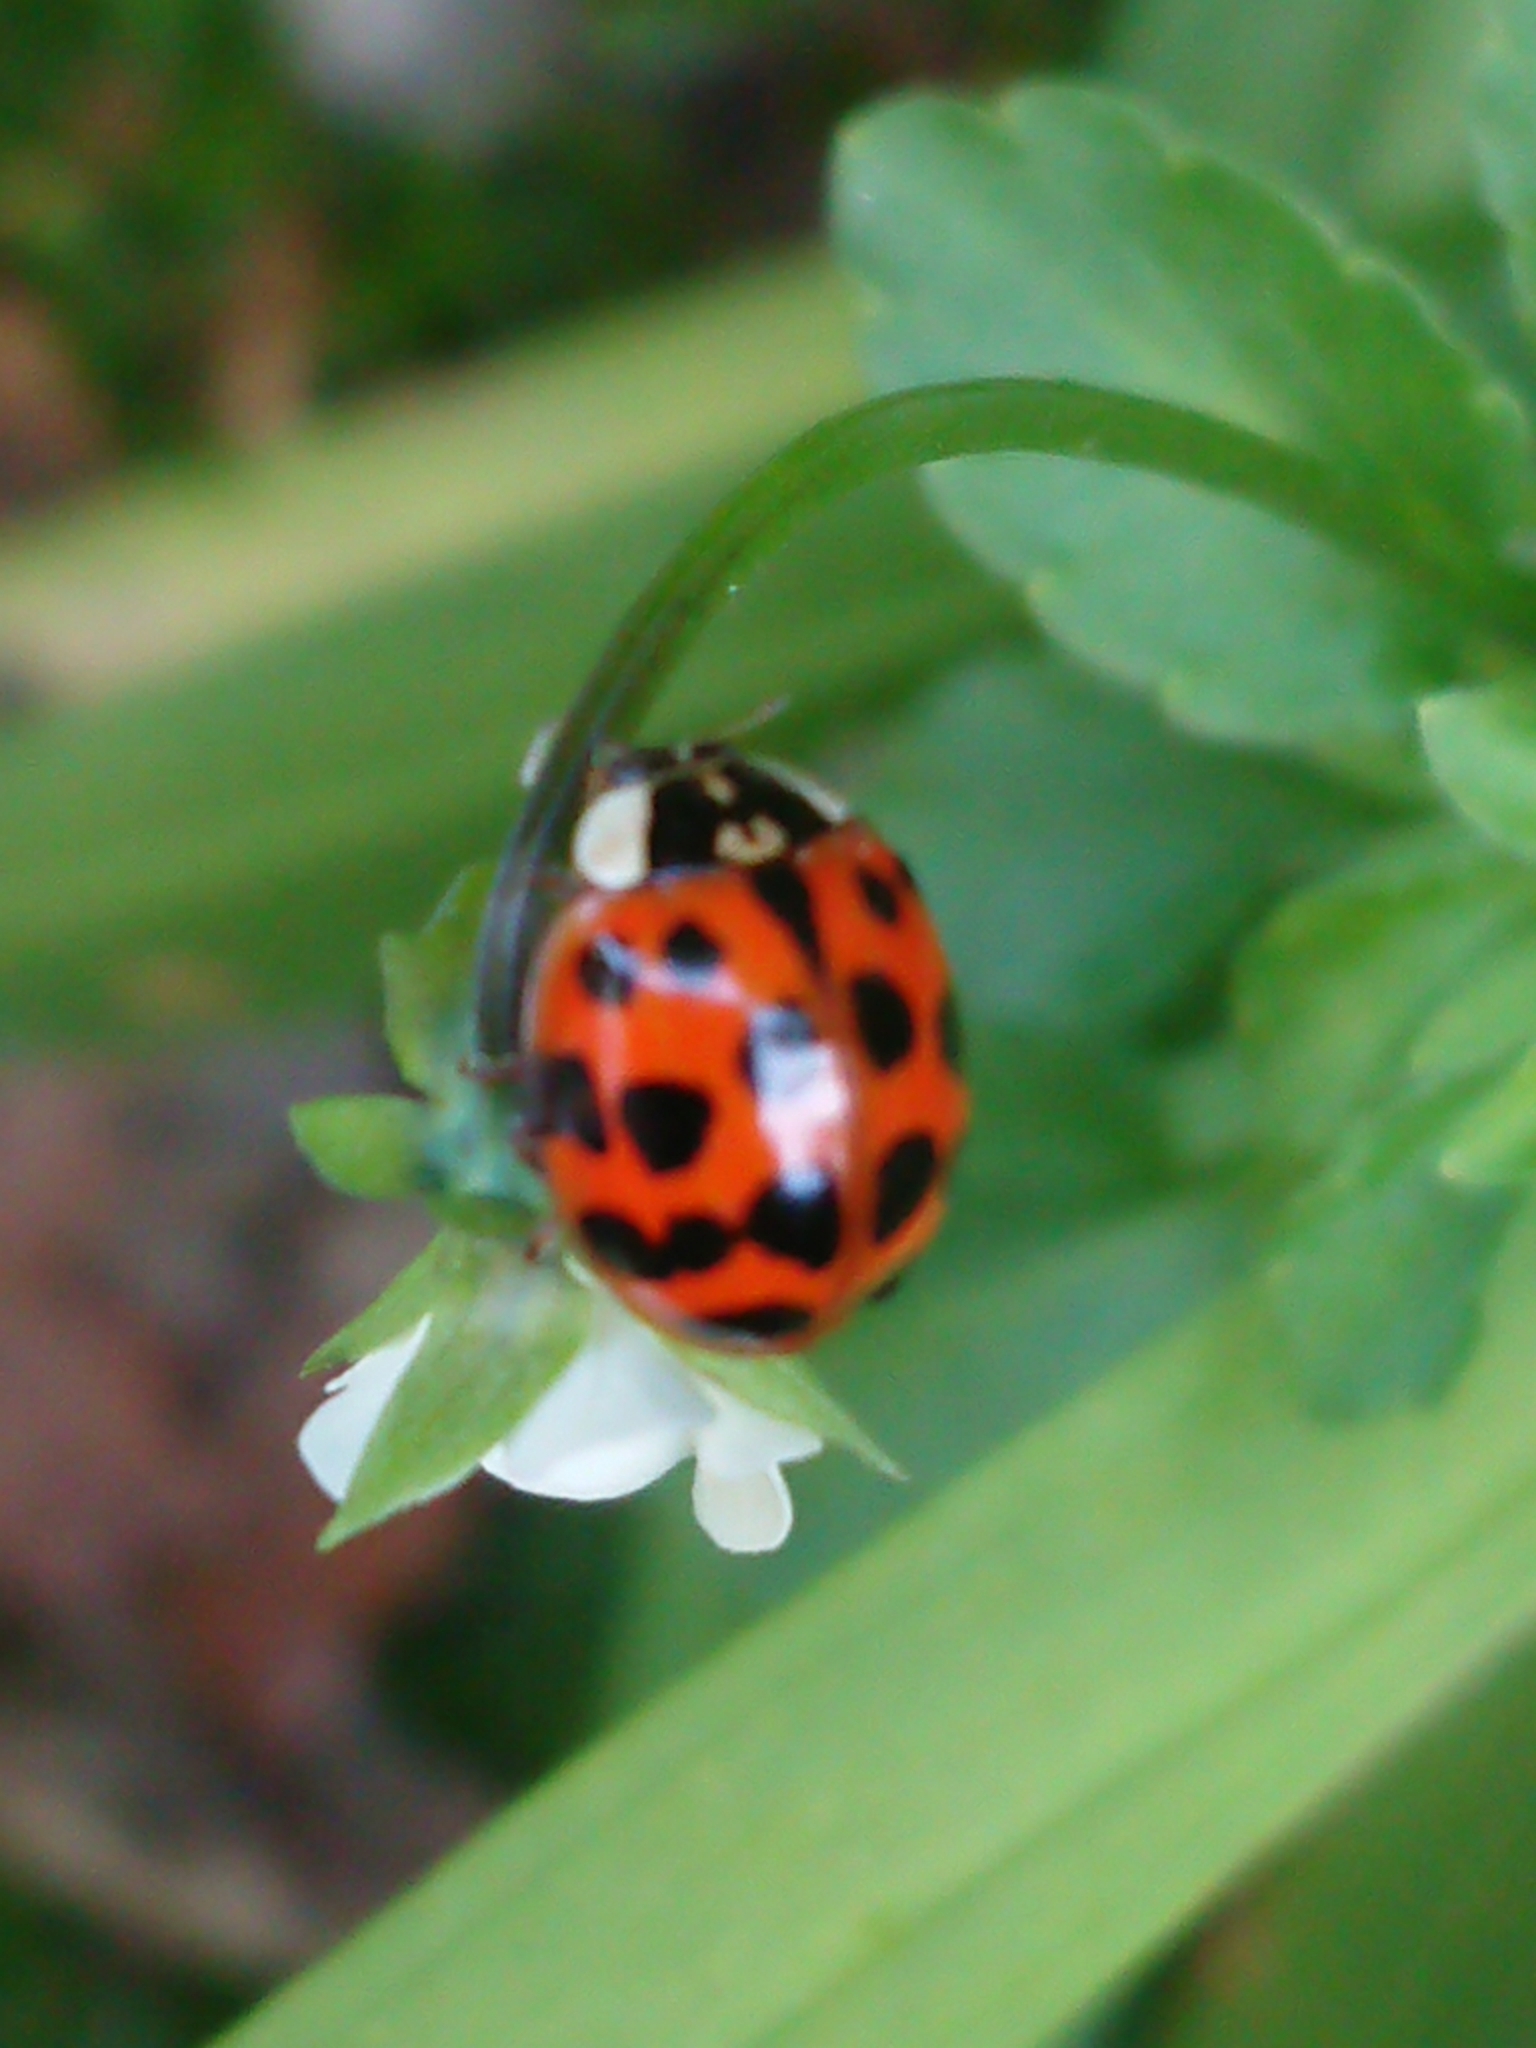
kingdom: Animalia
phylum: Arthropoda
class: Insecta
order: Coleoptera
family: Coccinellidae
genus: Harmonia
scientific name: Harmonia axyridis
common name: Harlequin ladybird
